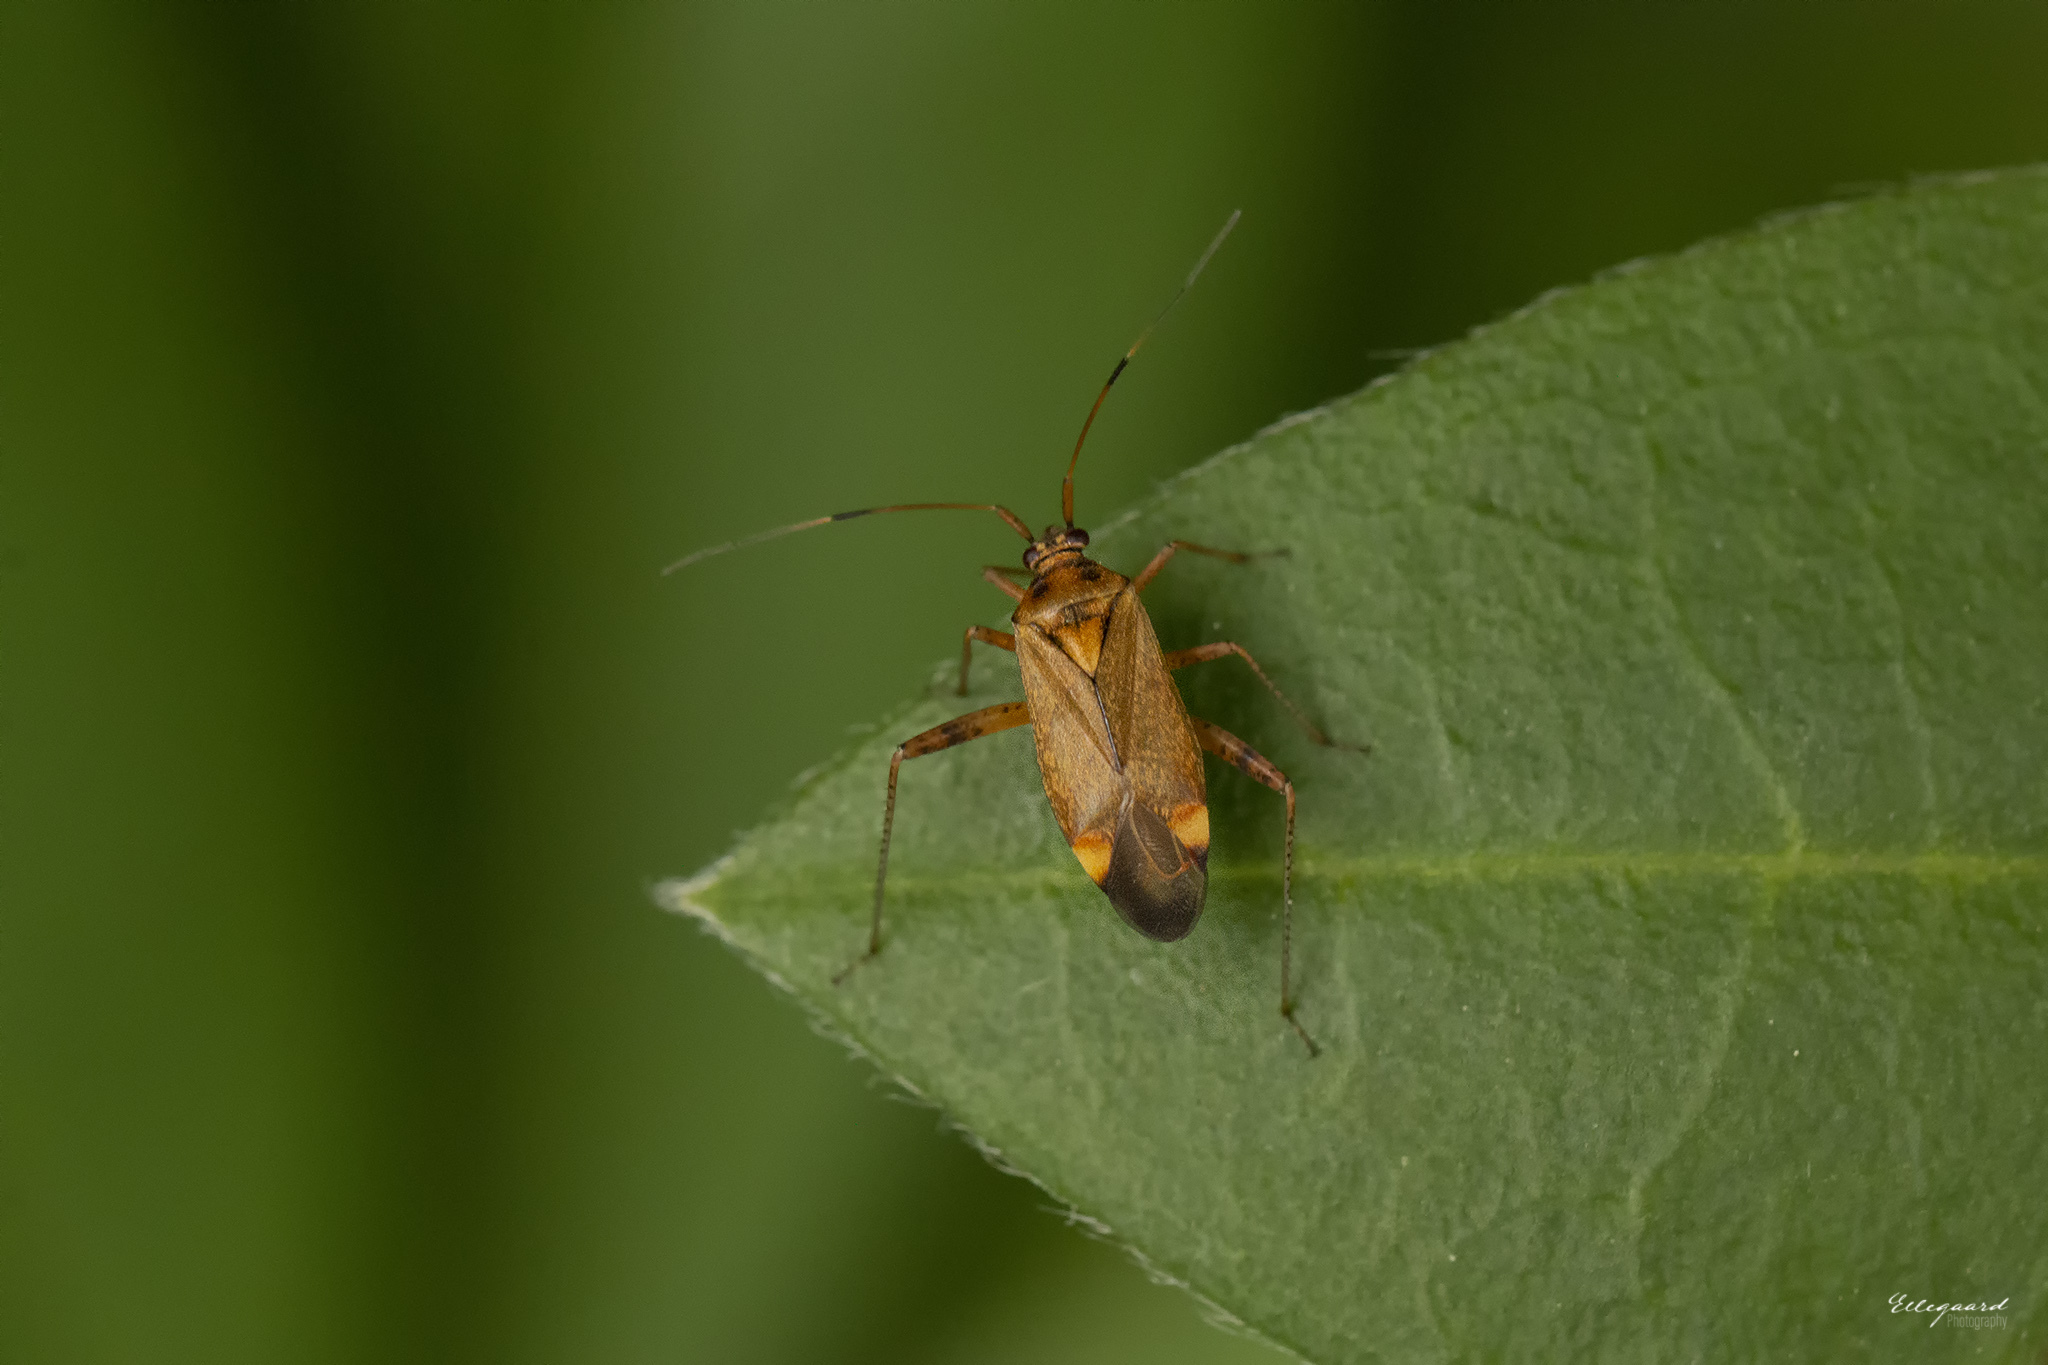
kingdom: Animalia
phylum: Arthropoda
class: Insecta
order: Hemiptera
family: Miridae
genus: Closterotomus
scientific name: Closterotomus fulvomaculatus
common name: Spotted plant bug
